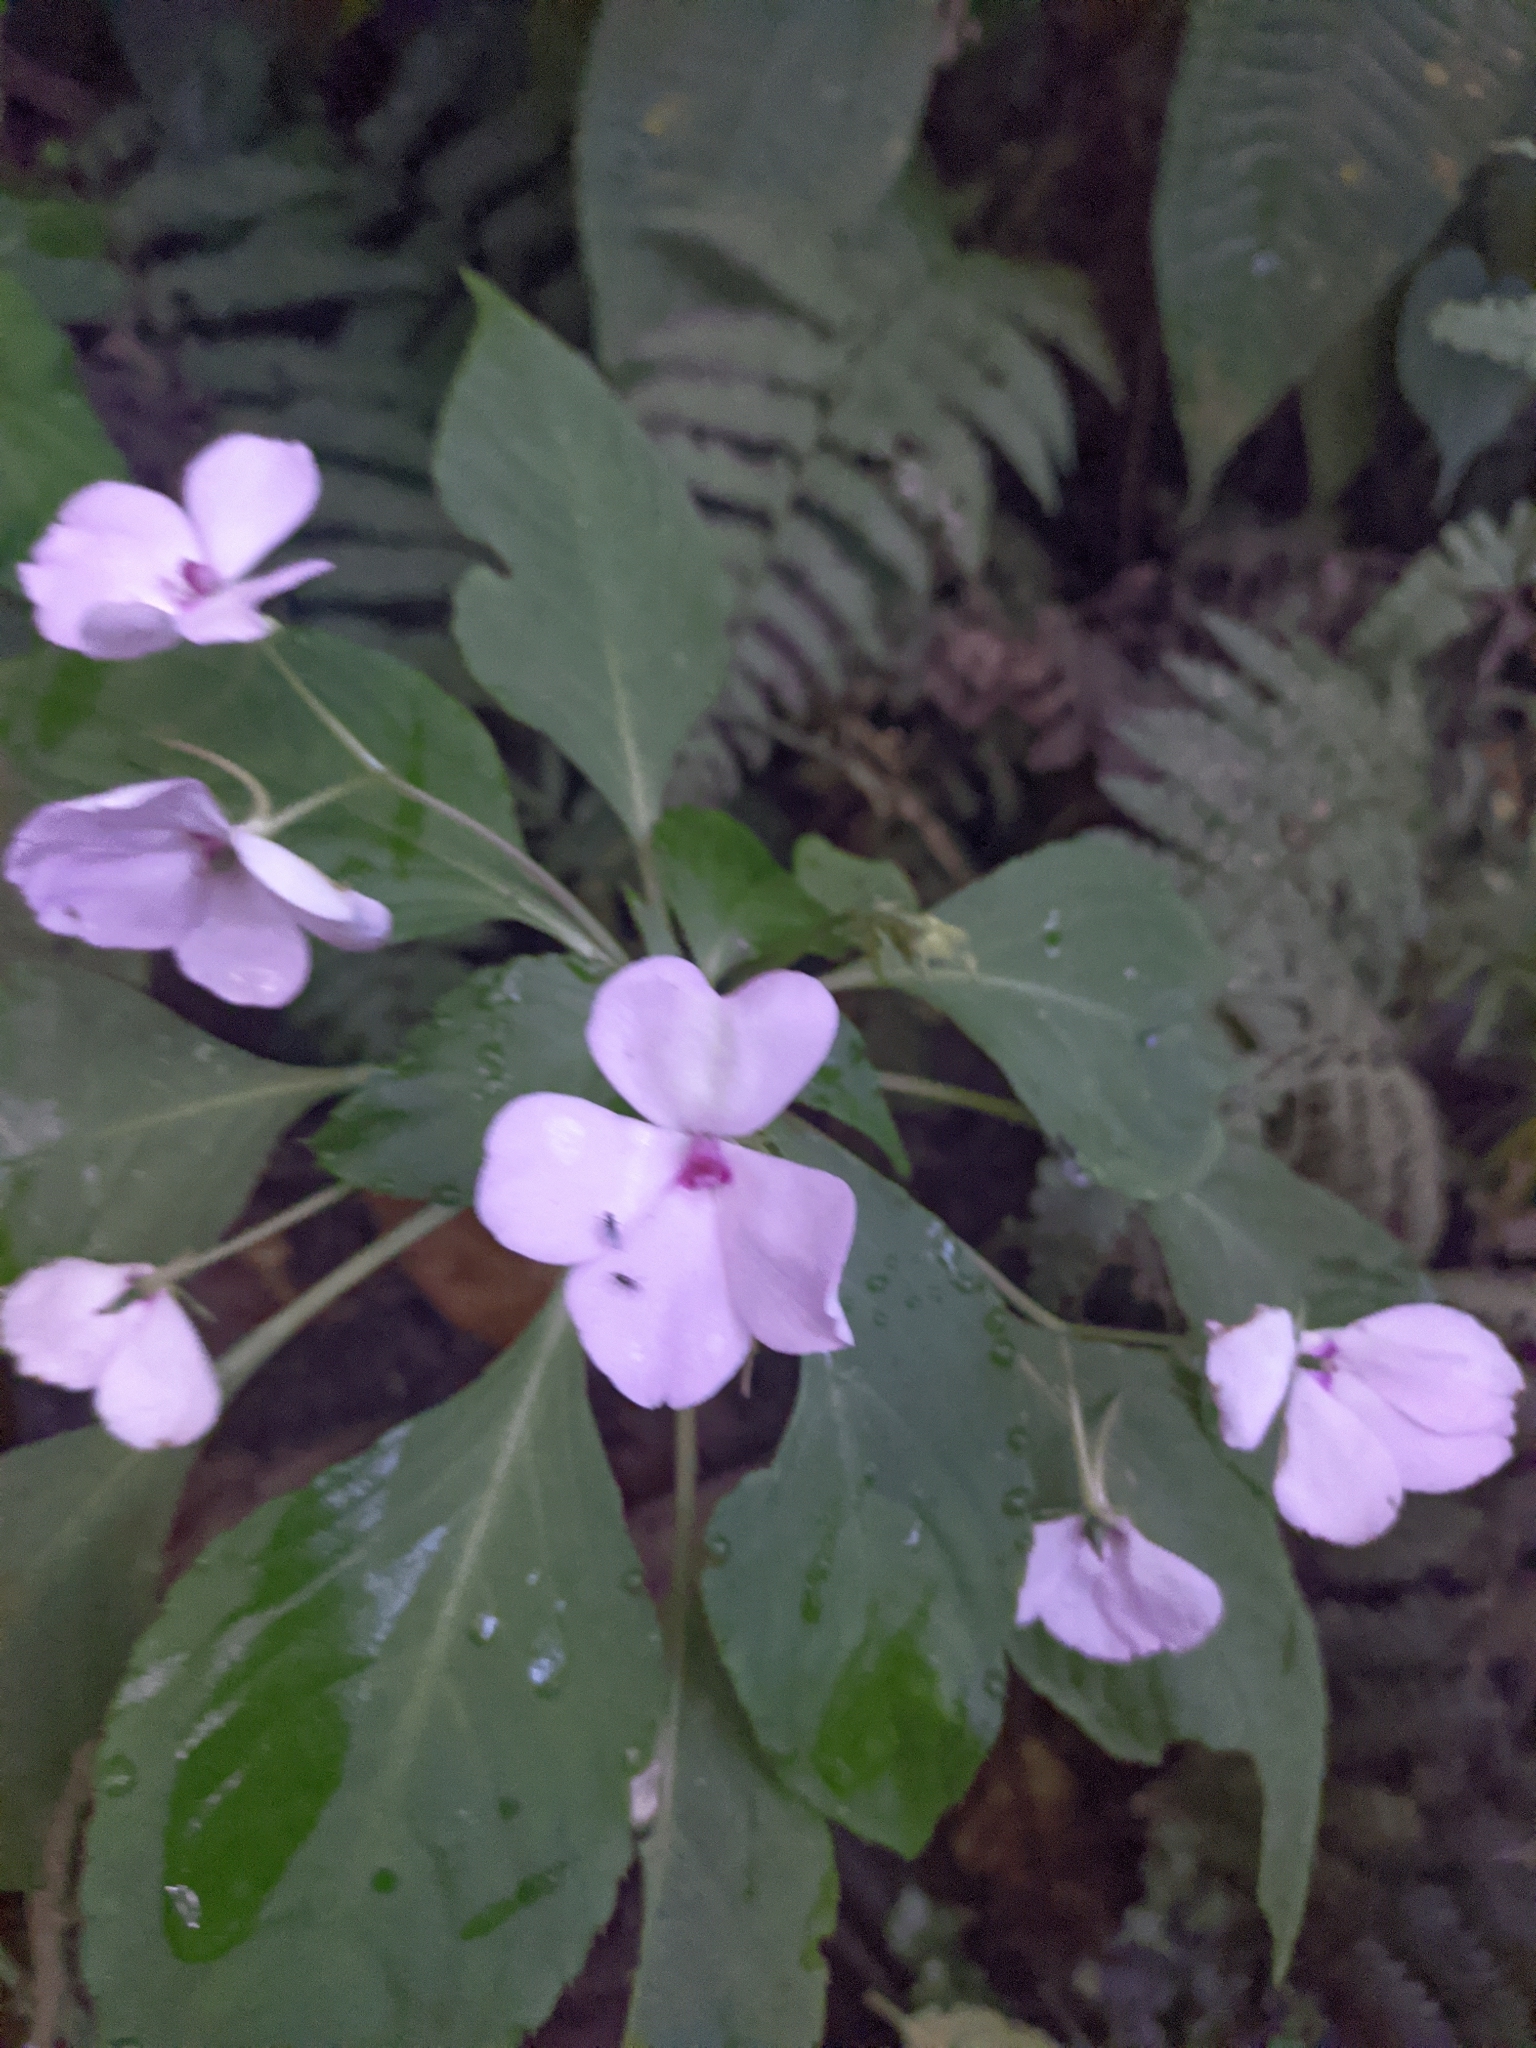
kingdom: Plantae
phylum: Tracheophyta
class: Magnoliopsida
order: Ericales
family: Balsaminaceae
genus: Impatiens
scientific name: Impatiens walleriana
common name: Buzzy lizzy
